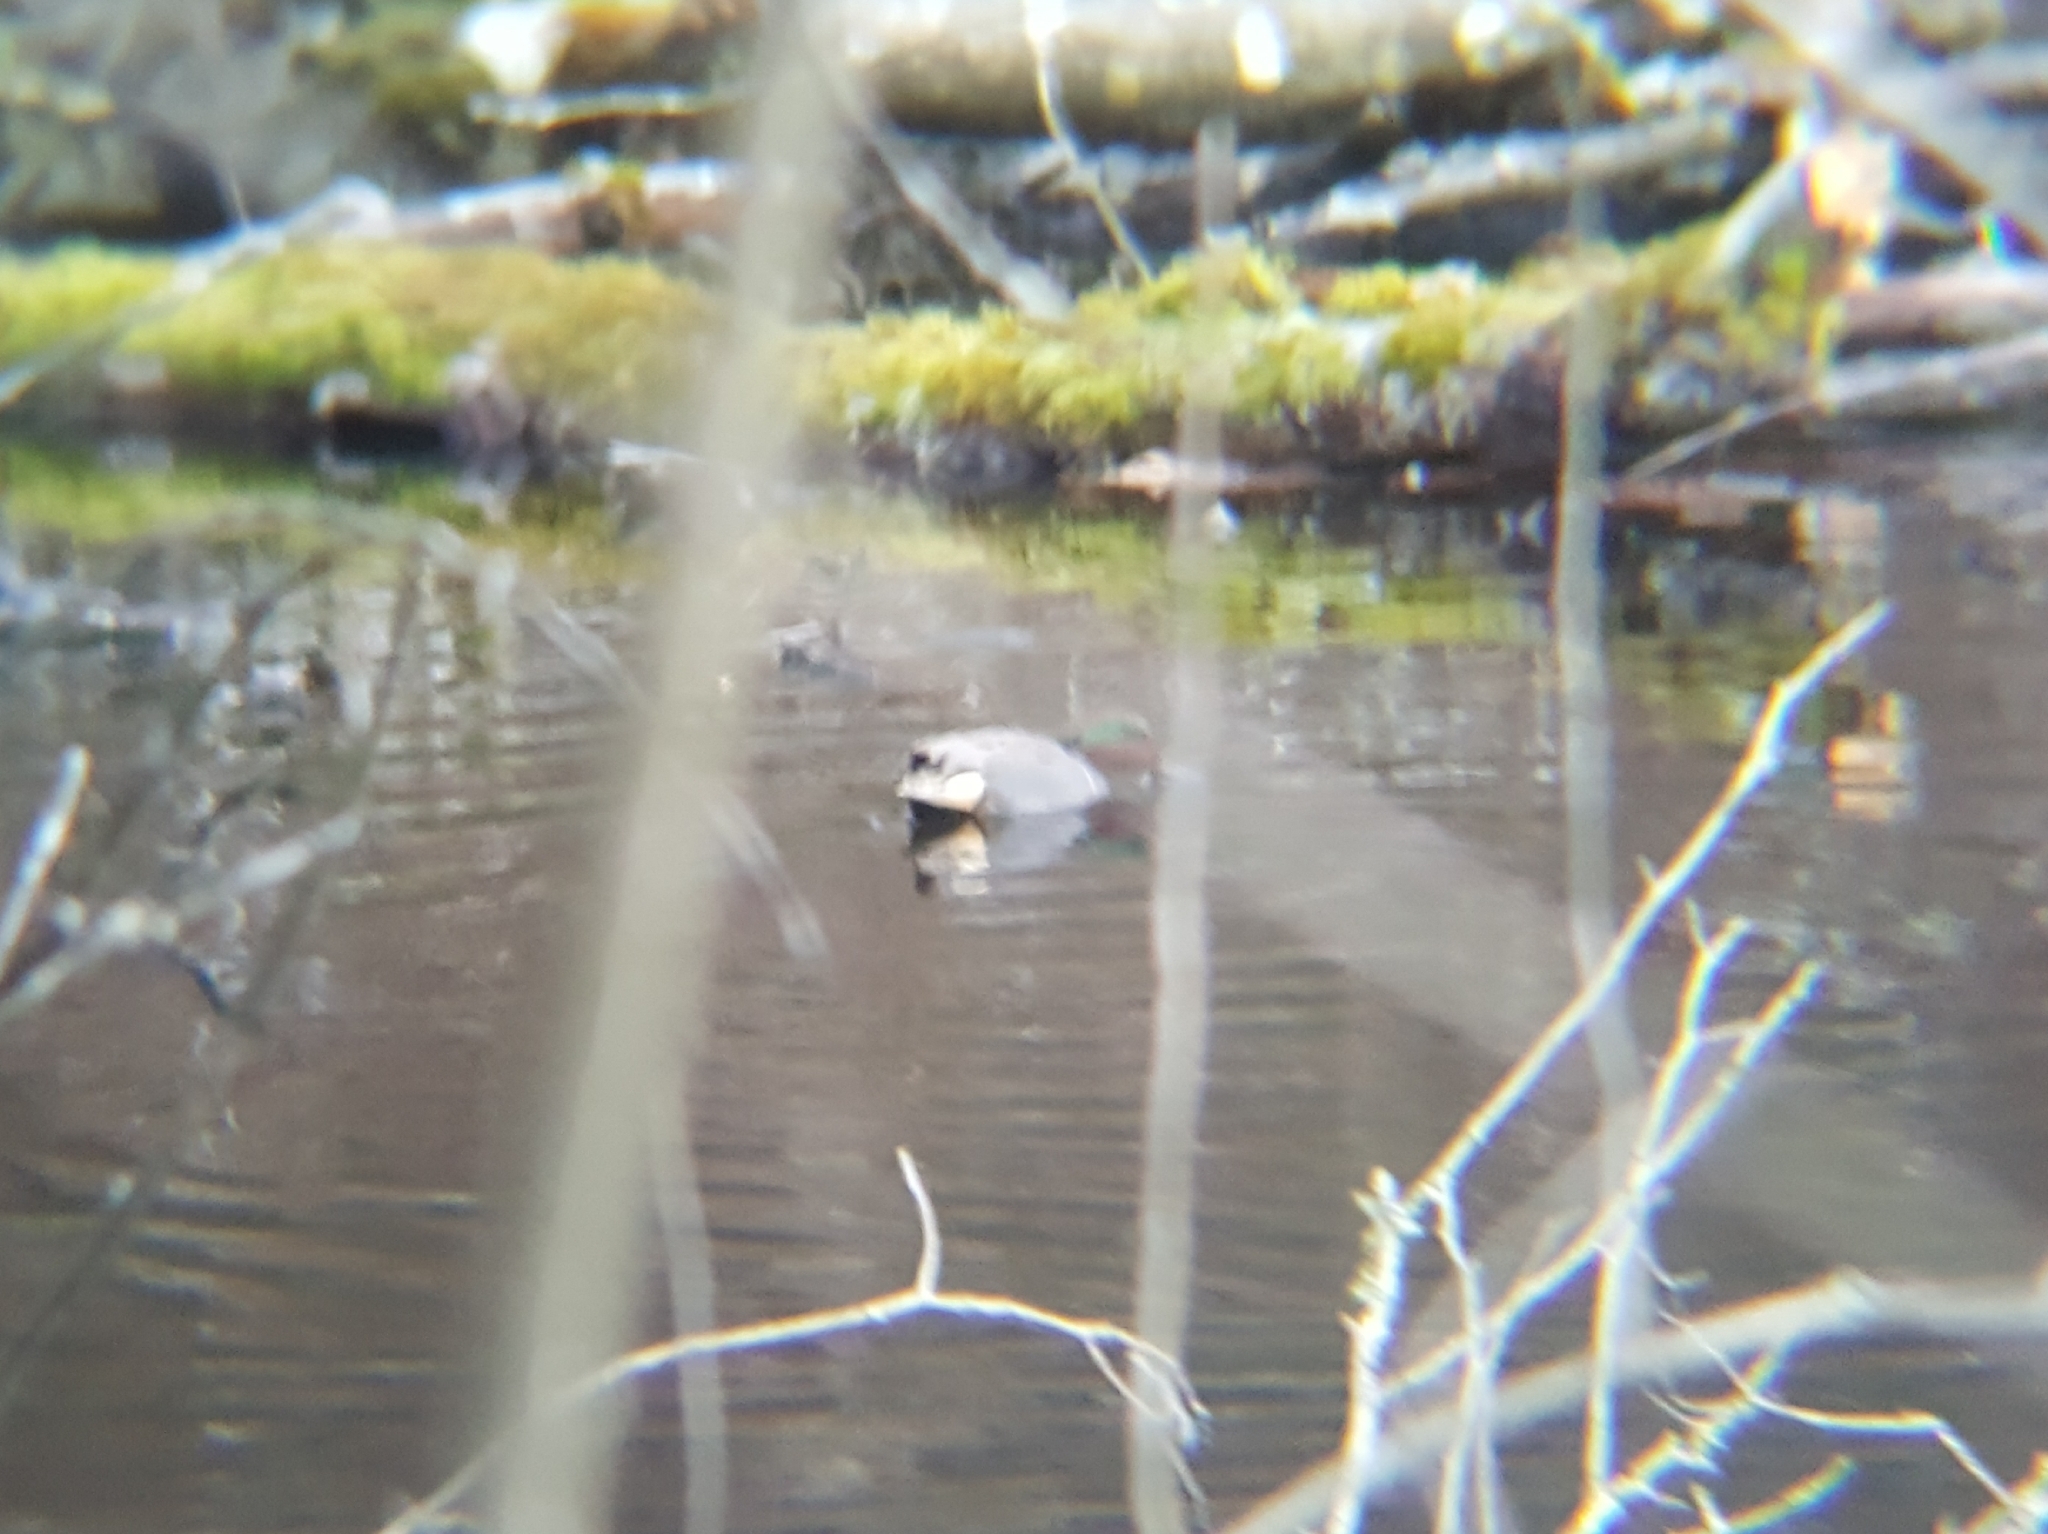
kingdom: Animalia
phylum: Chordata
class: Aves
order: Anseriformes
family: Anatidae
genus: Anas
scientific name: Anas crecca
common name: Eurasian teal
